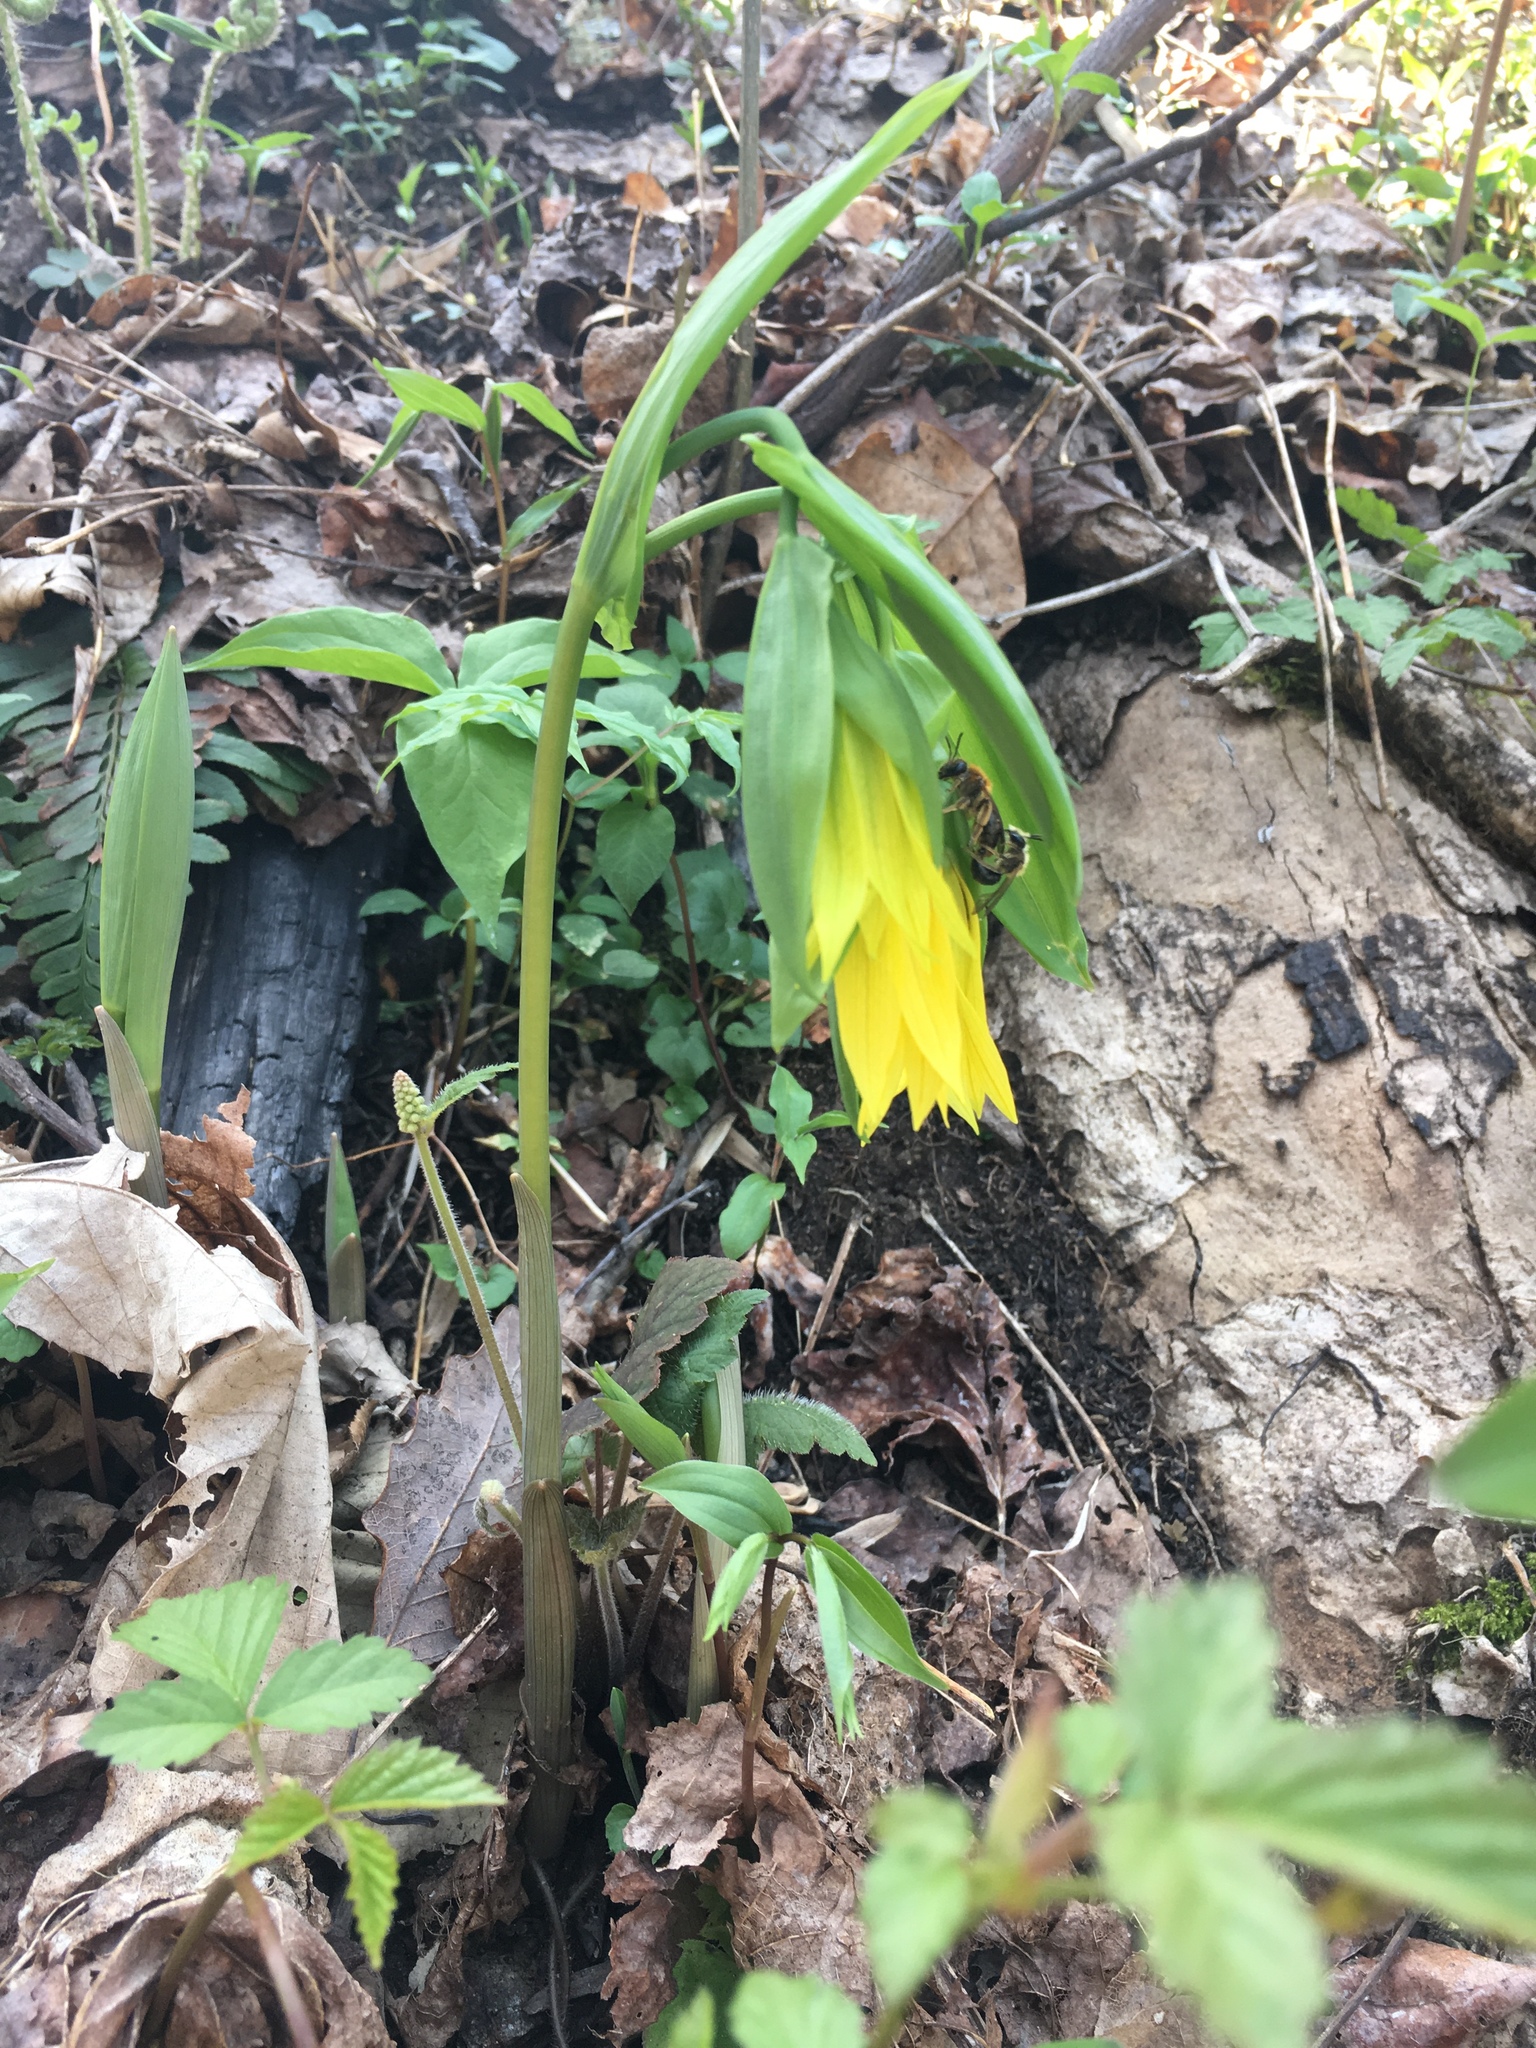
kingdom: Plantae
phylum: Tracheophyta
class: Liliopsida
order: Liliales
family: Colchicaceae
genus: Uvularia
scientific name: Uvularia grandiflora
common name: Bellwort
